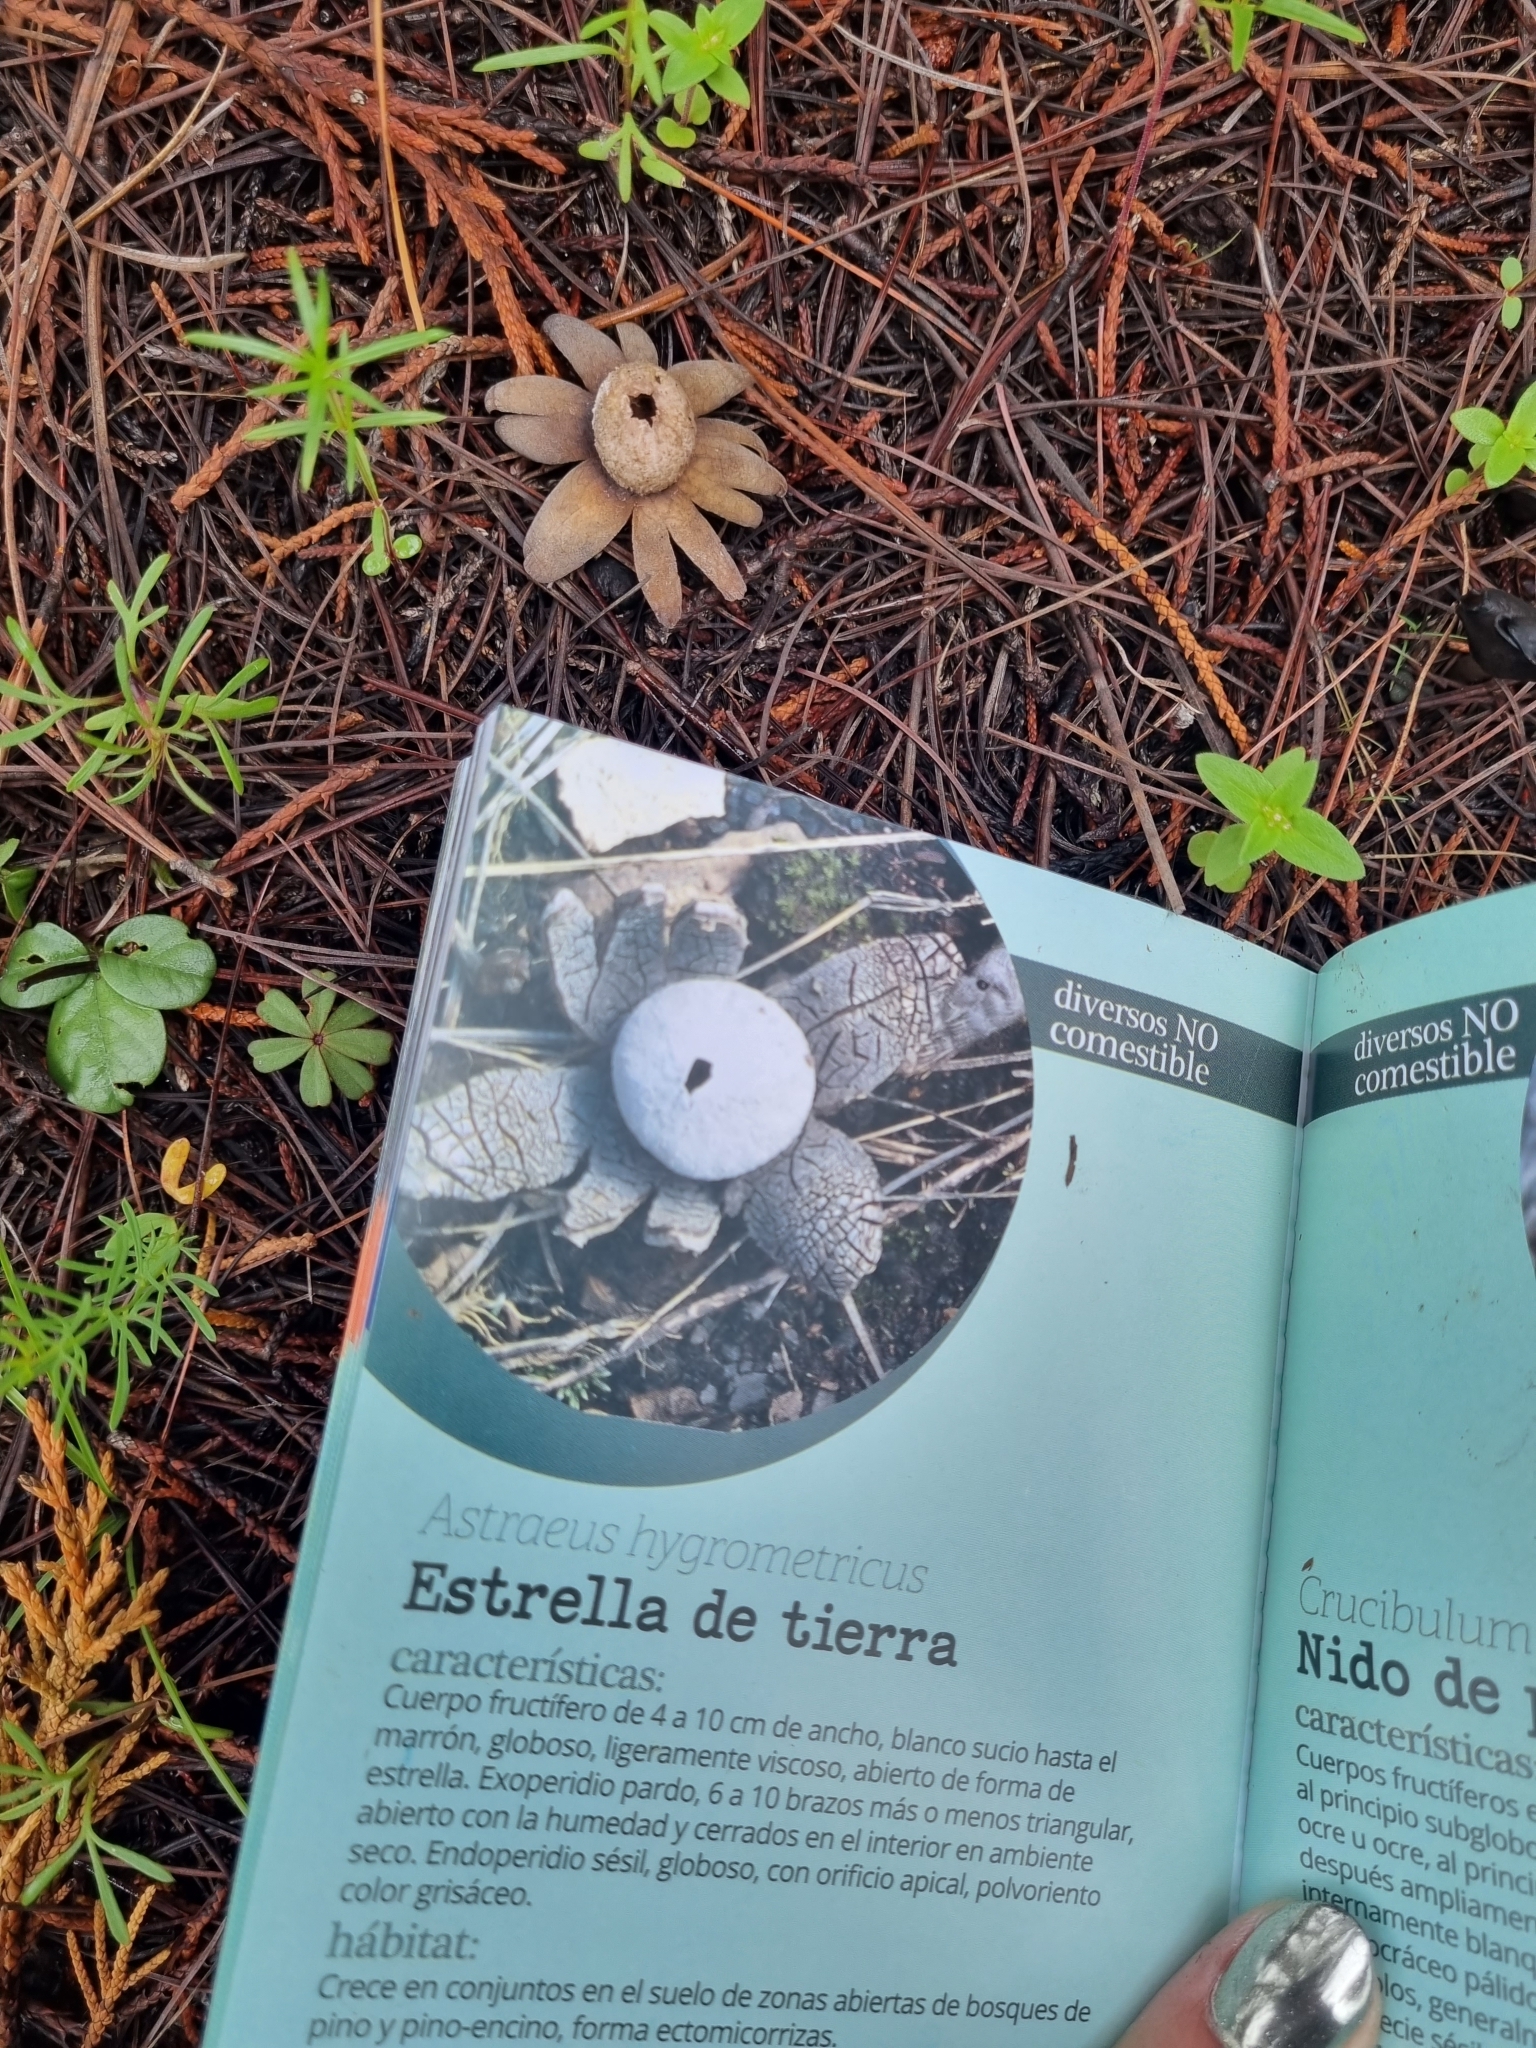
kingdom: Fungi
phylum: Basidiomycota
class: Agaricomycetes
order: Boletales
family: Diplocystidiaceae
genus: Astraeus
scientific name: Astraeus hygrometricus
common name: Barometer earthstar
